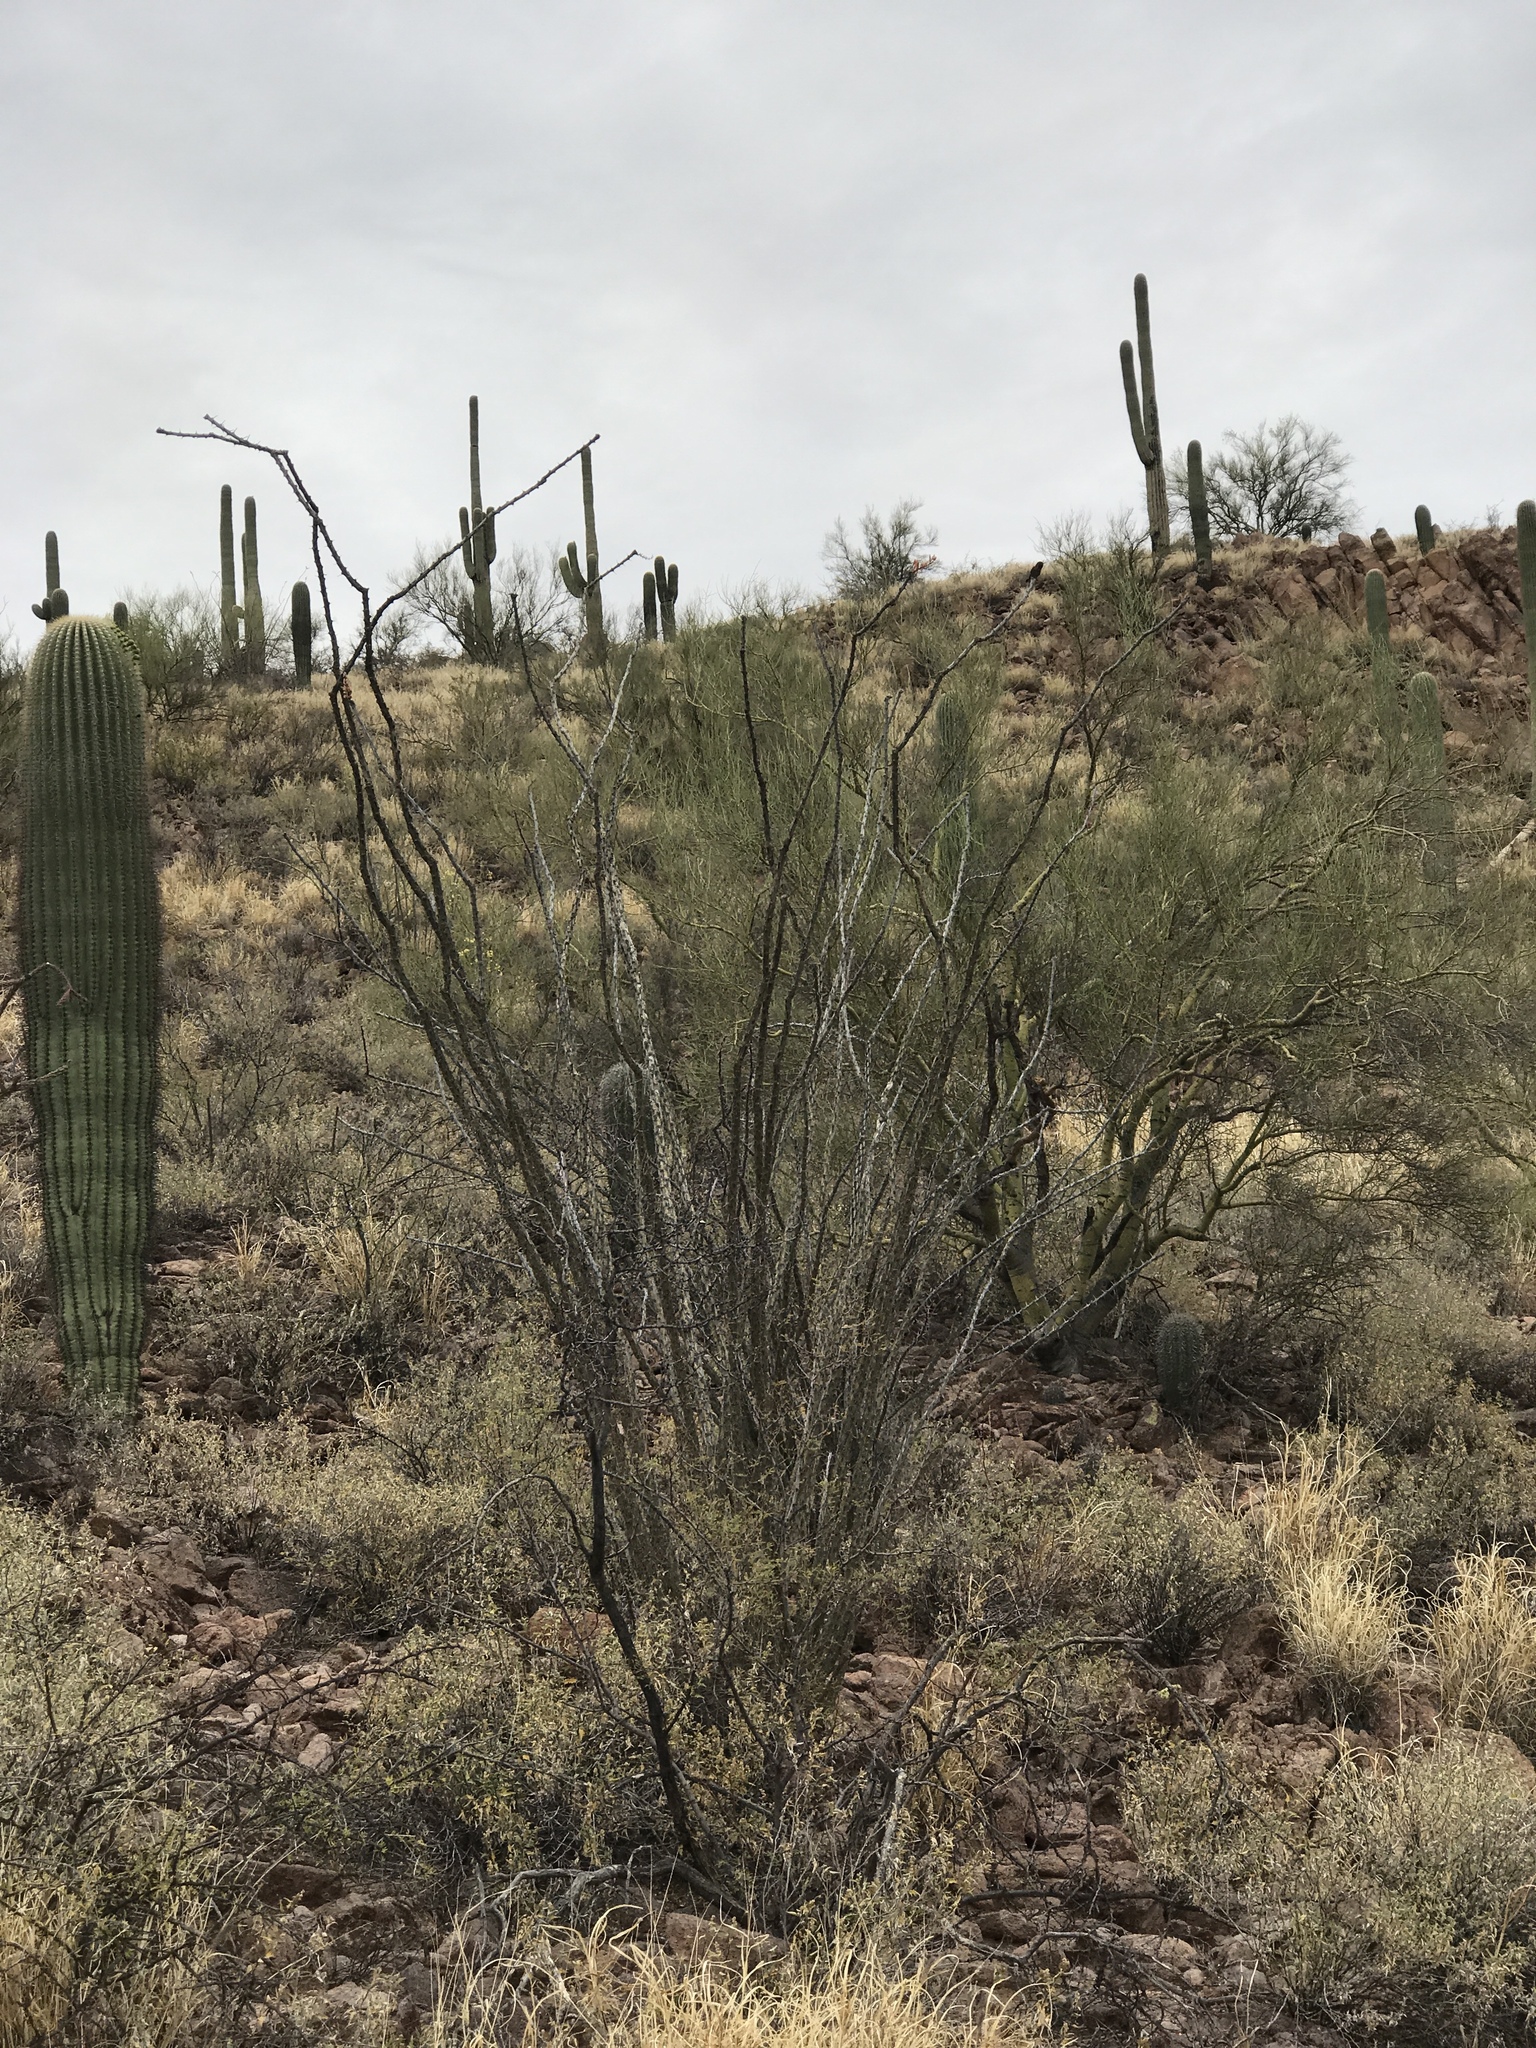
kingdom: Plantae
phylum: Tracheophyta
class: Magnoliopsida
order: Ericales
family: Fouquieriaceae
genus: Fouquieria
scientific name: Fouquieria splendens
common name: Vine-cactus
